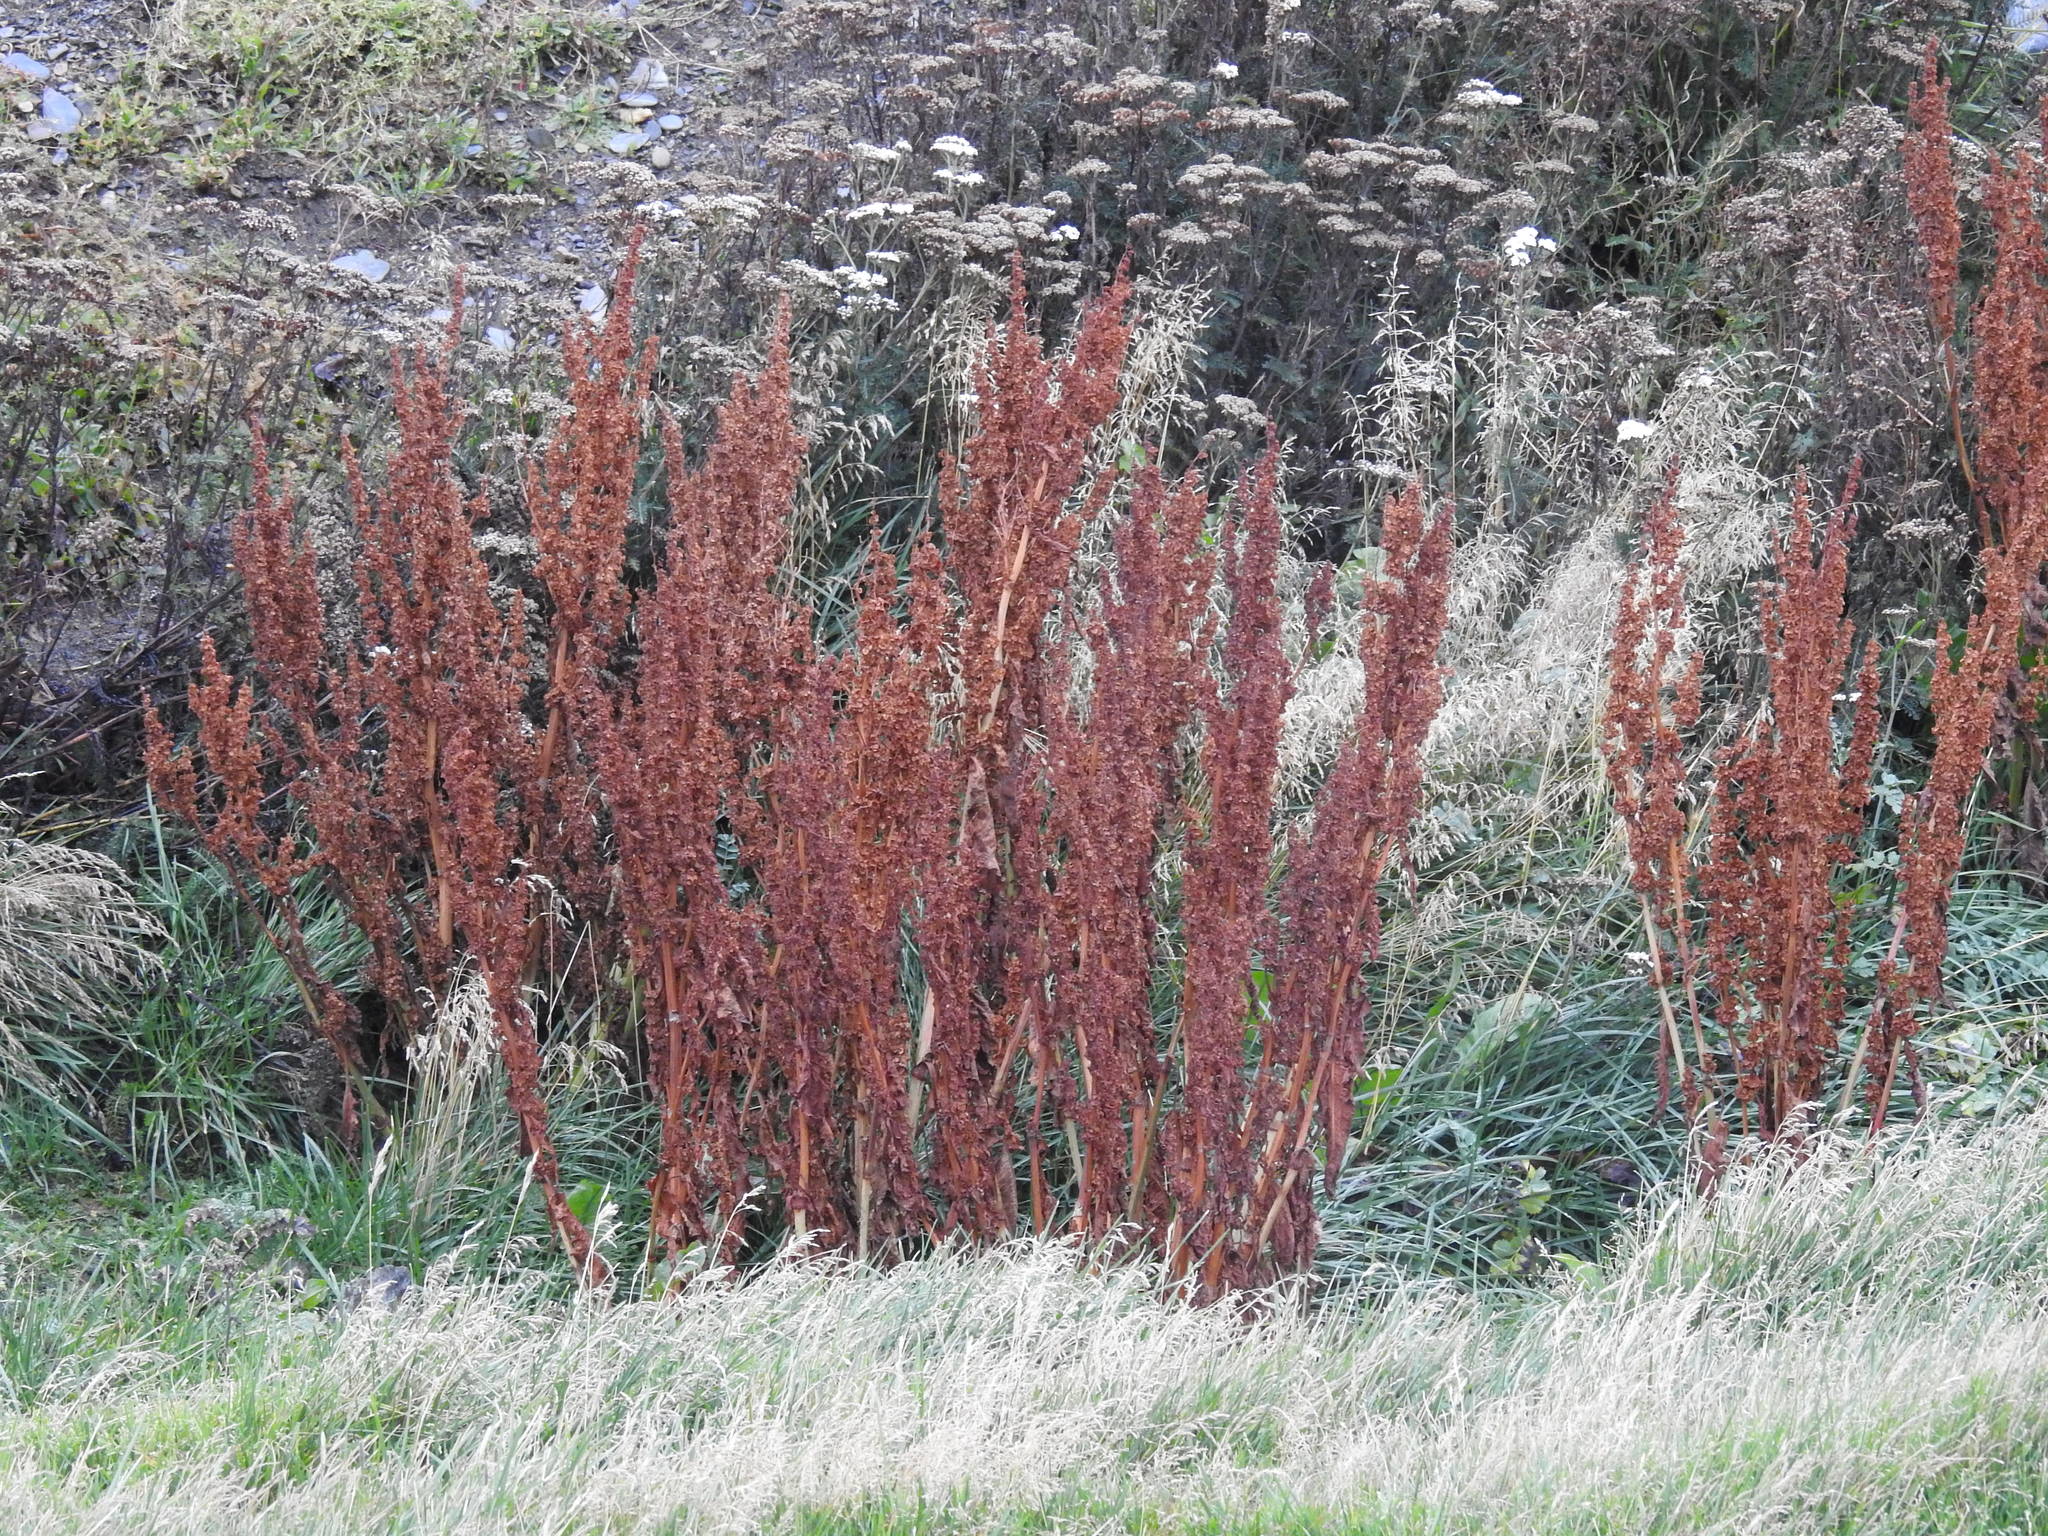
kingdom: Plantae
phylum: Tracheophyta
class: Magnoliopsida
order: Caryophyllales
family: Polygonaceae
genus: Rumex
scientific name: Rumex crispus
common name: Curled dock
